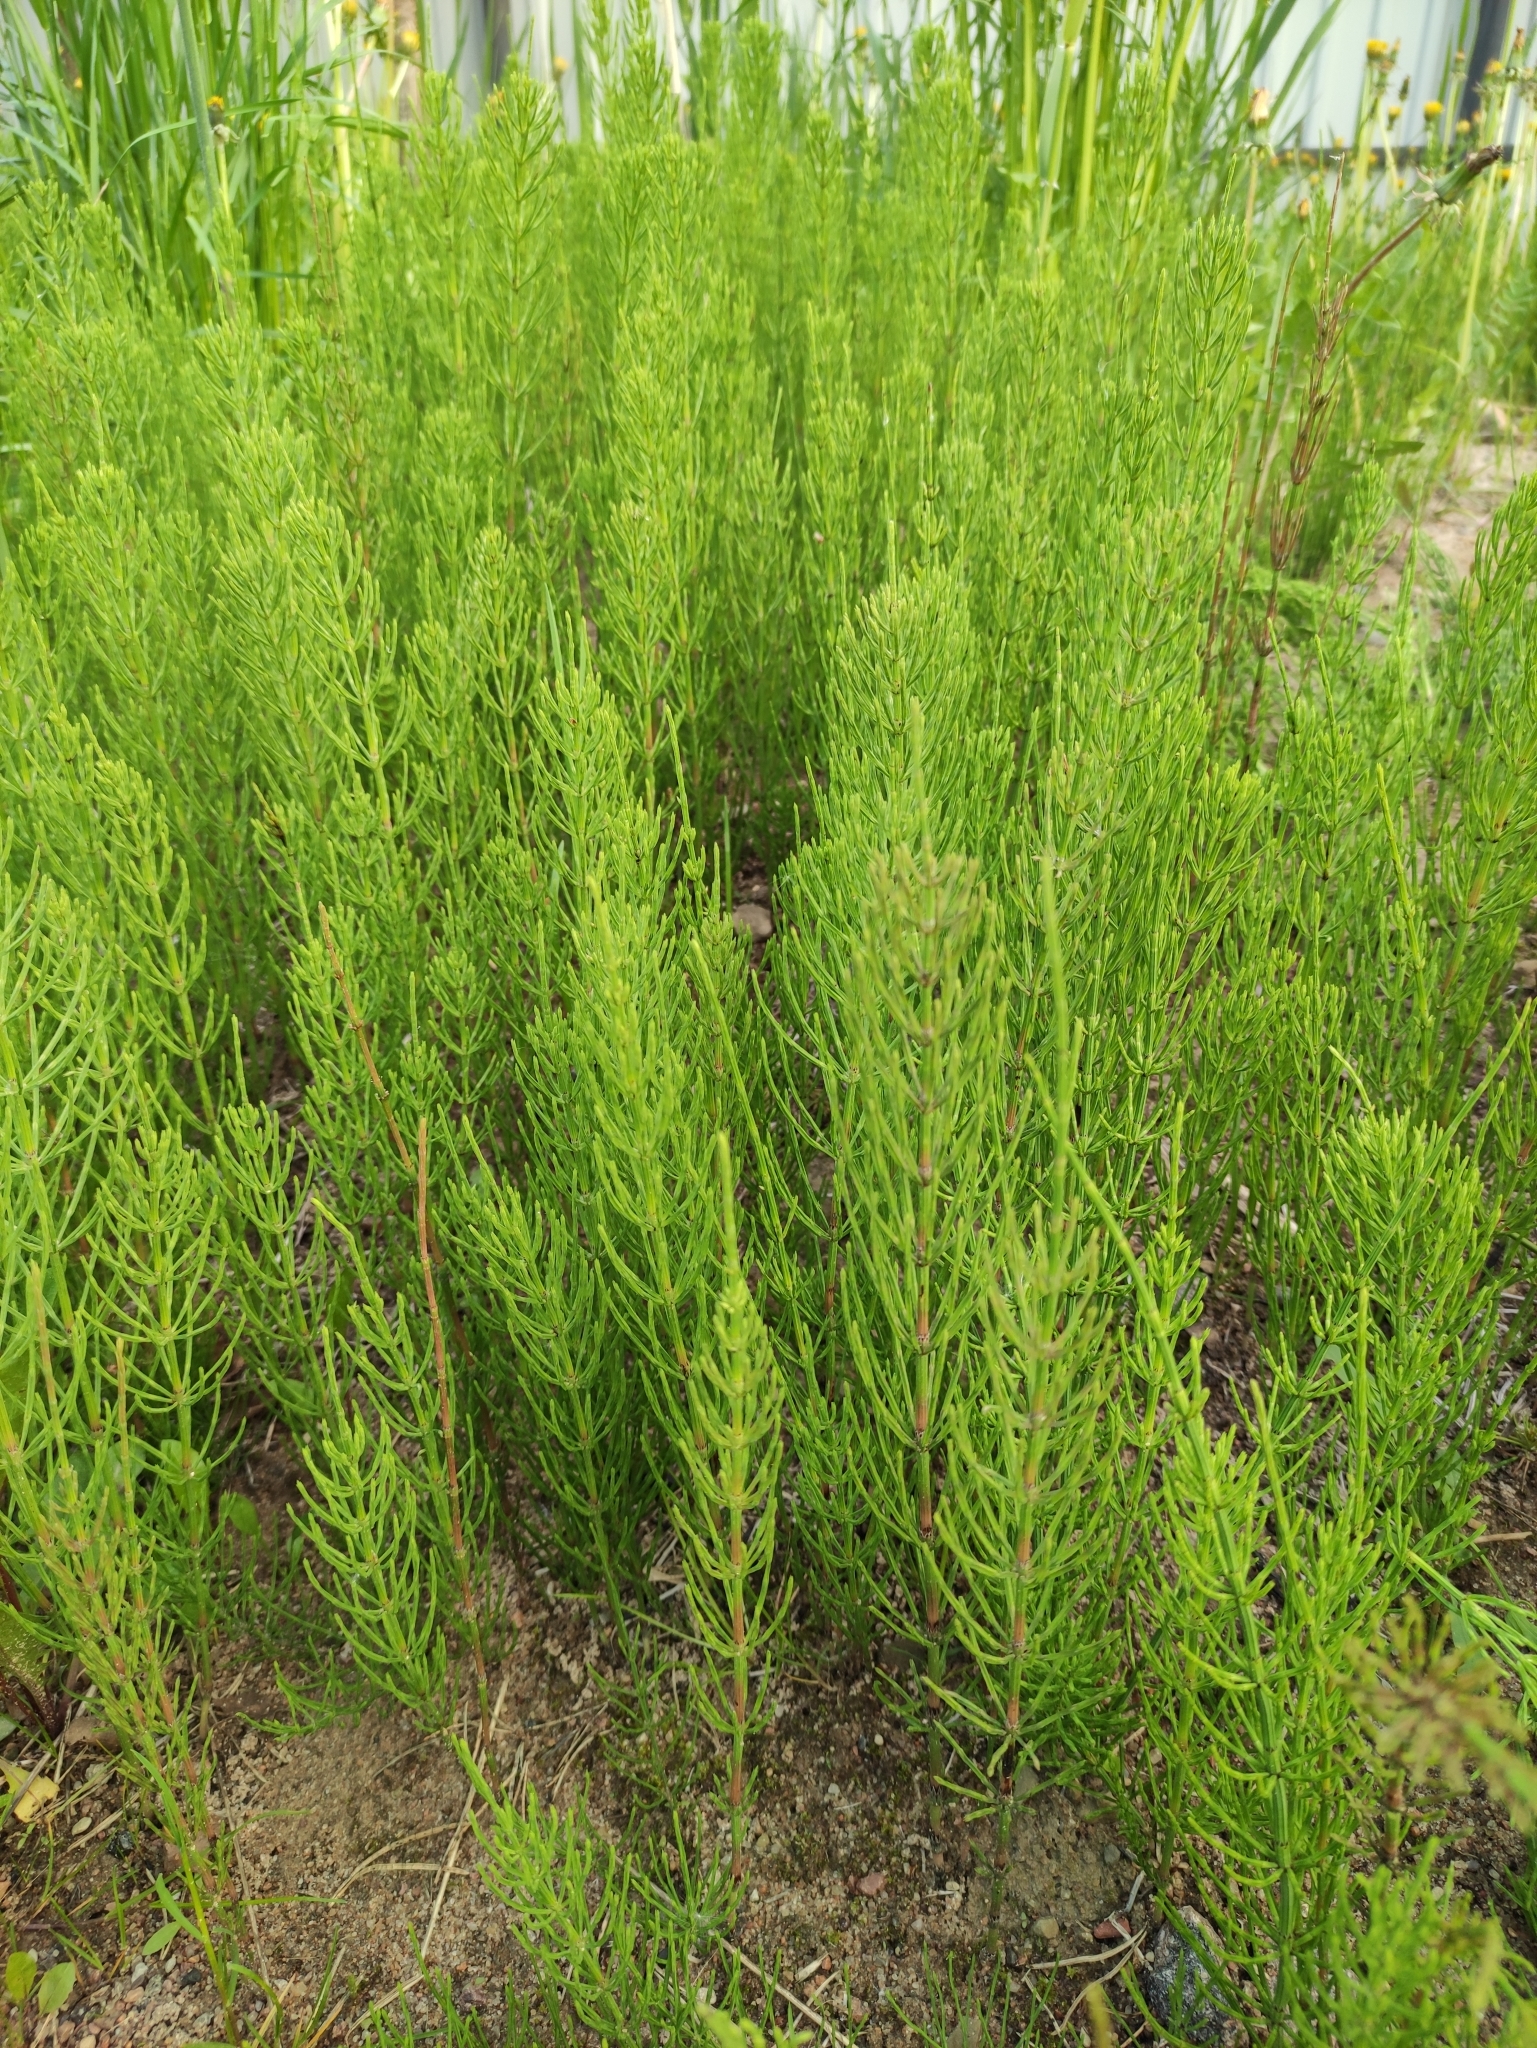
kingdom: Plantae
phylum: Tracheophyta
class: Polypodiopsida
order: Equisetales
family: Equisetaceae
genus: Equisetum
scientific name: Equisetum arvense
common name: Field horsetail
